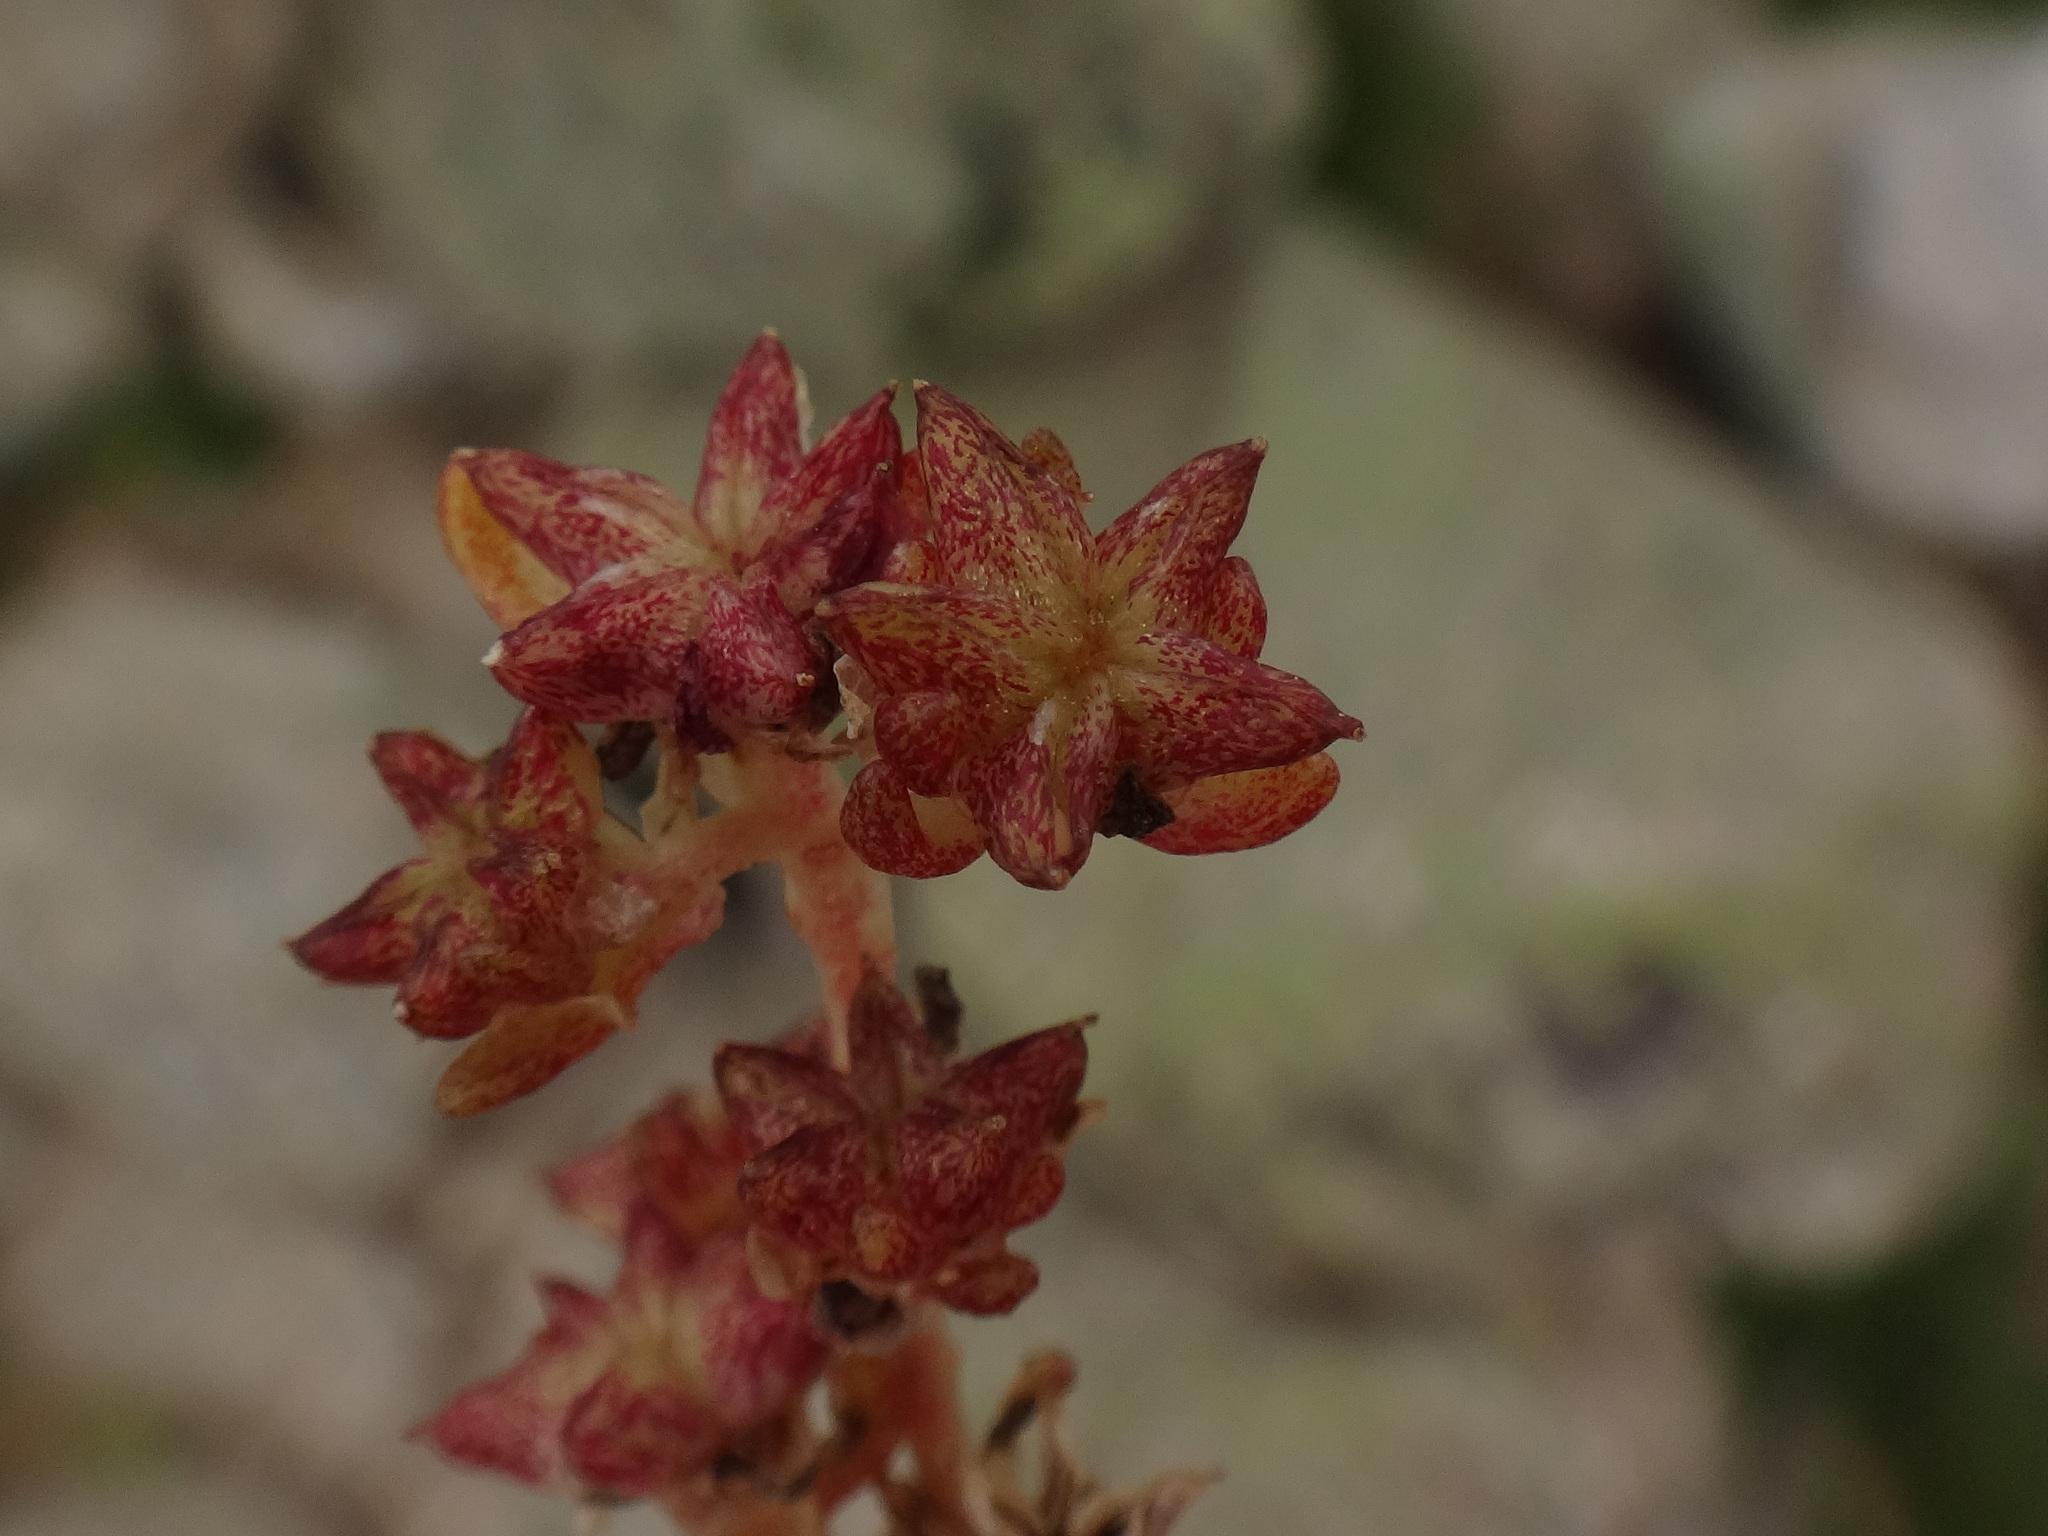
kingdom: Plantae
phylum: Tracheophyta
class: Magnoliopsida
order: Saxifragales
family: Crassulaceae
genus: Sedum
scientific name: Sedum alpestre
